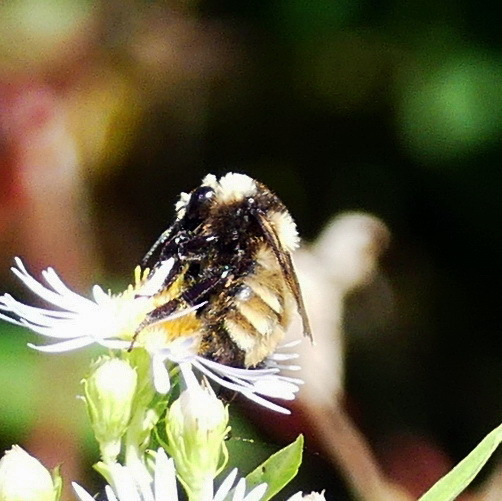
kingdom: Animalia
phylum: Arthropoda
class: Insecta
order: Hymenoptera
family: Apidae
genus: Bombus
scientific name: Bombus borealis
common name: Northern amber bumble bee
